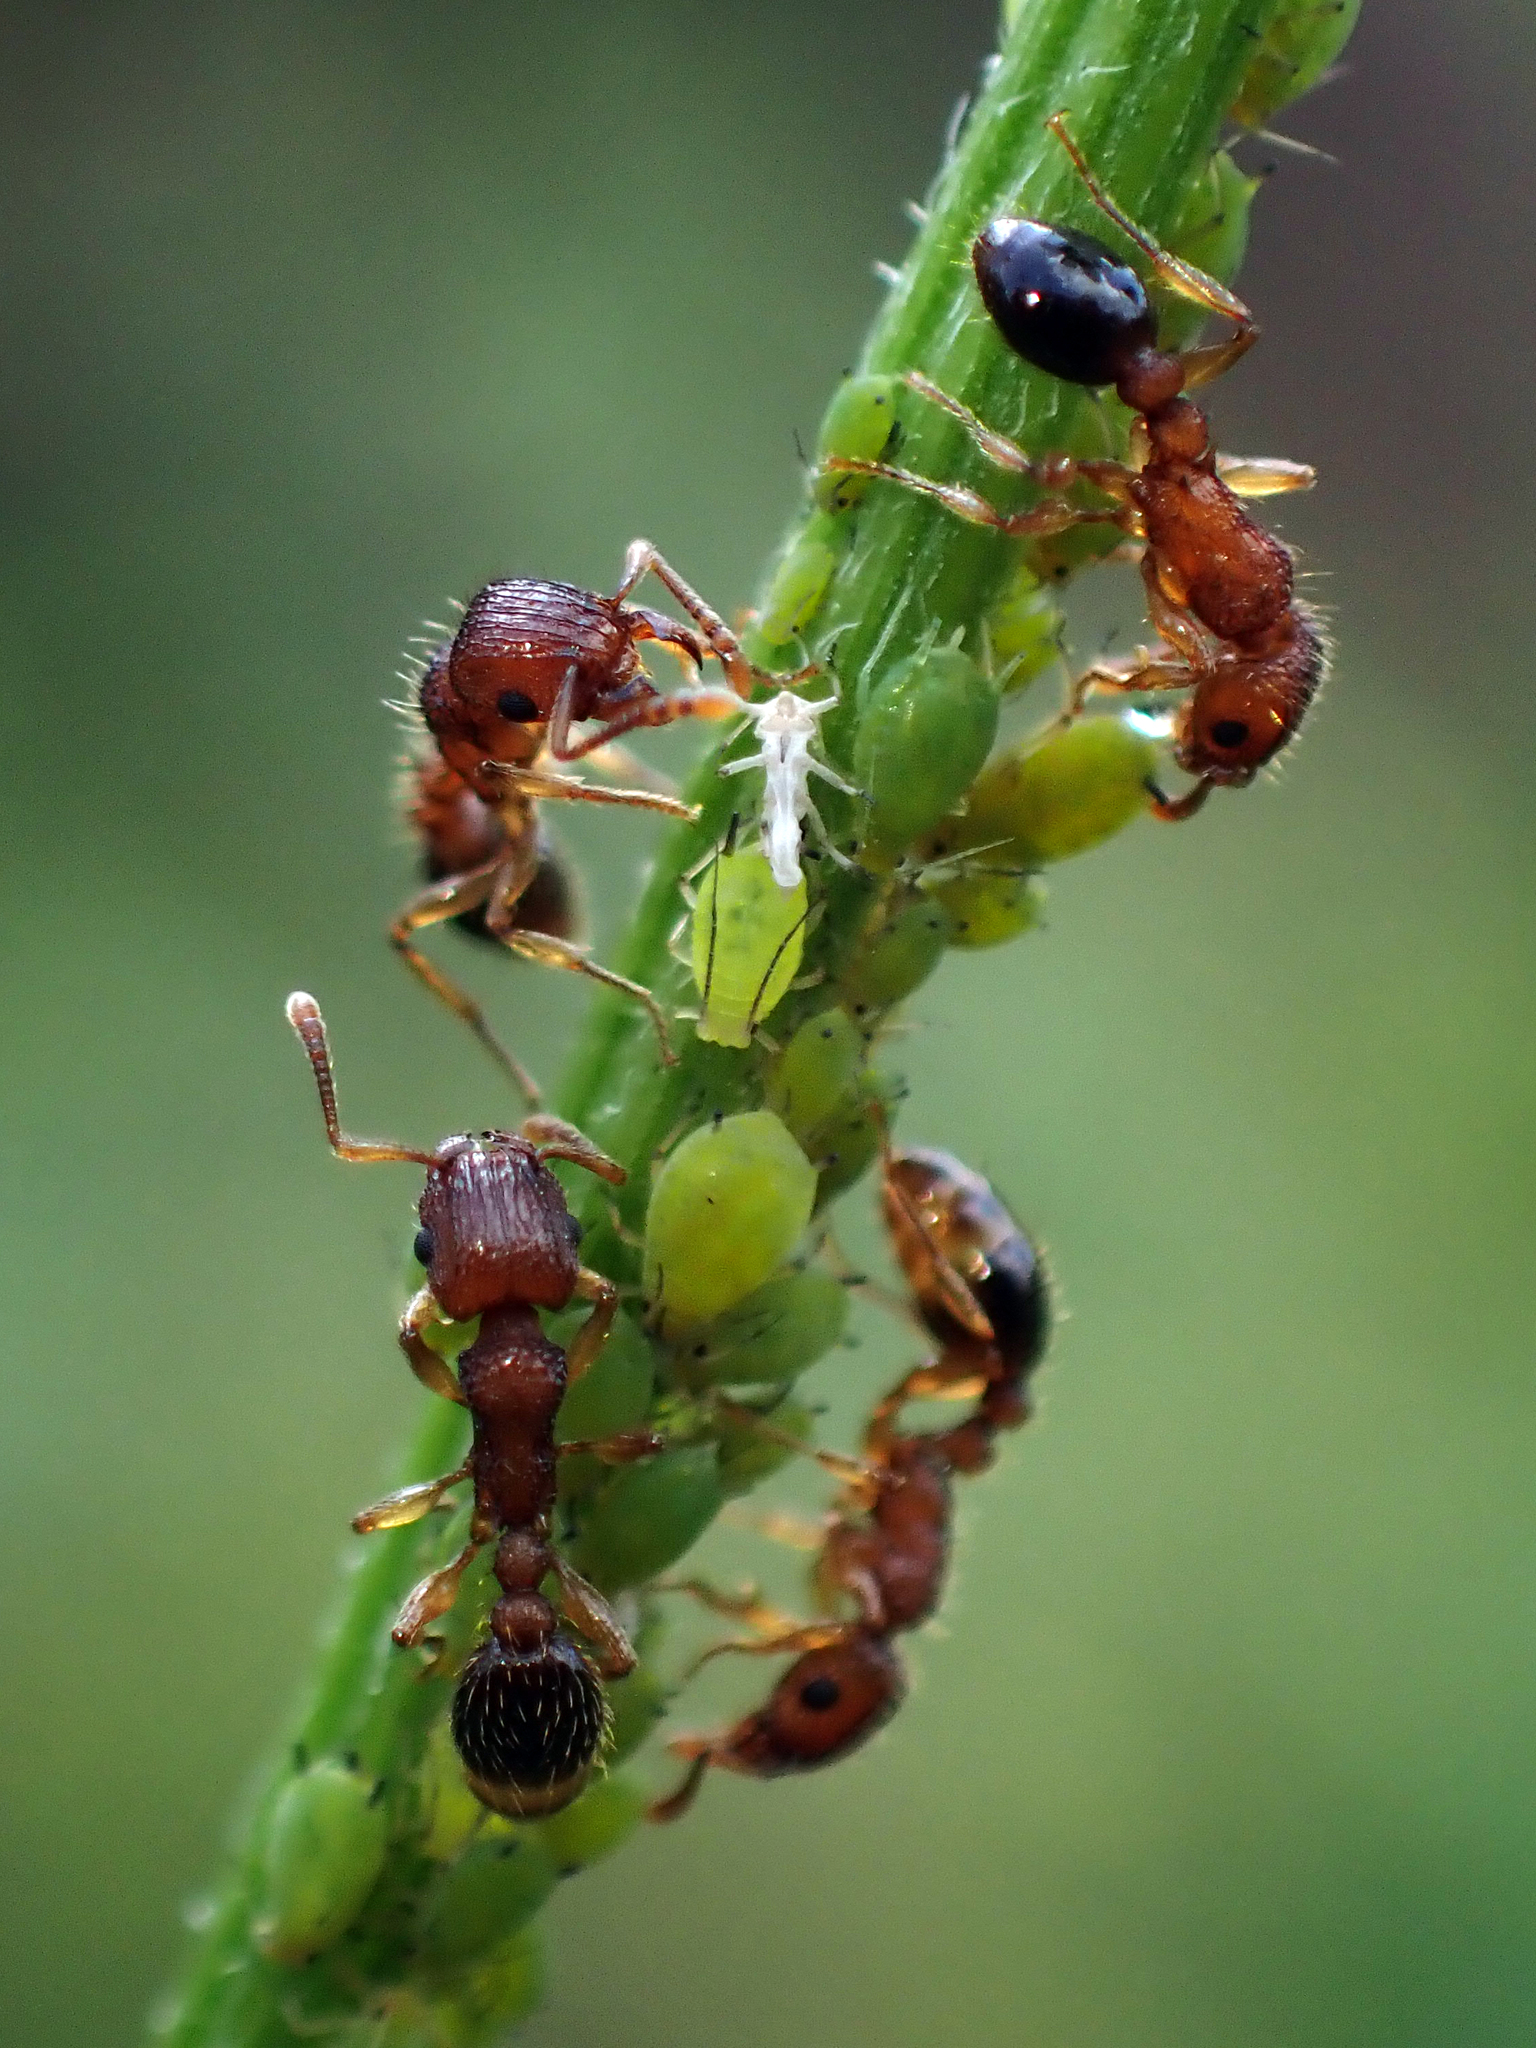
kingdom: Animalia
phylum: Arthropoda
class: Insecta
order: Hymenoptera
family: Formicidae
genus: Tetramorium
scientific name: Tetramorium bicarinatum
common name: Guinea ant
